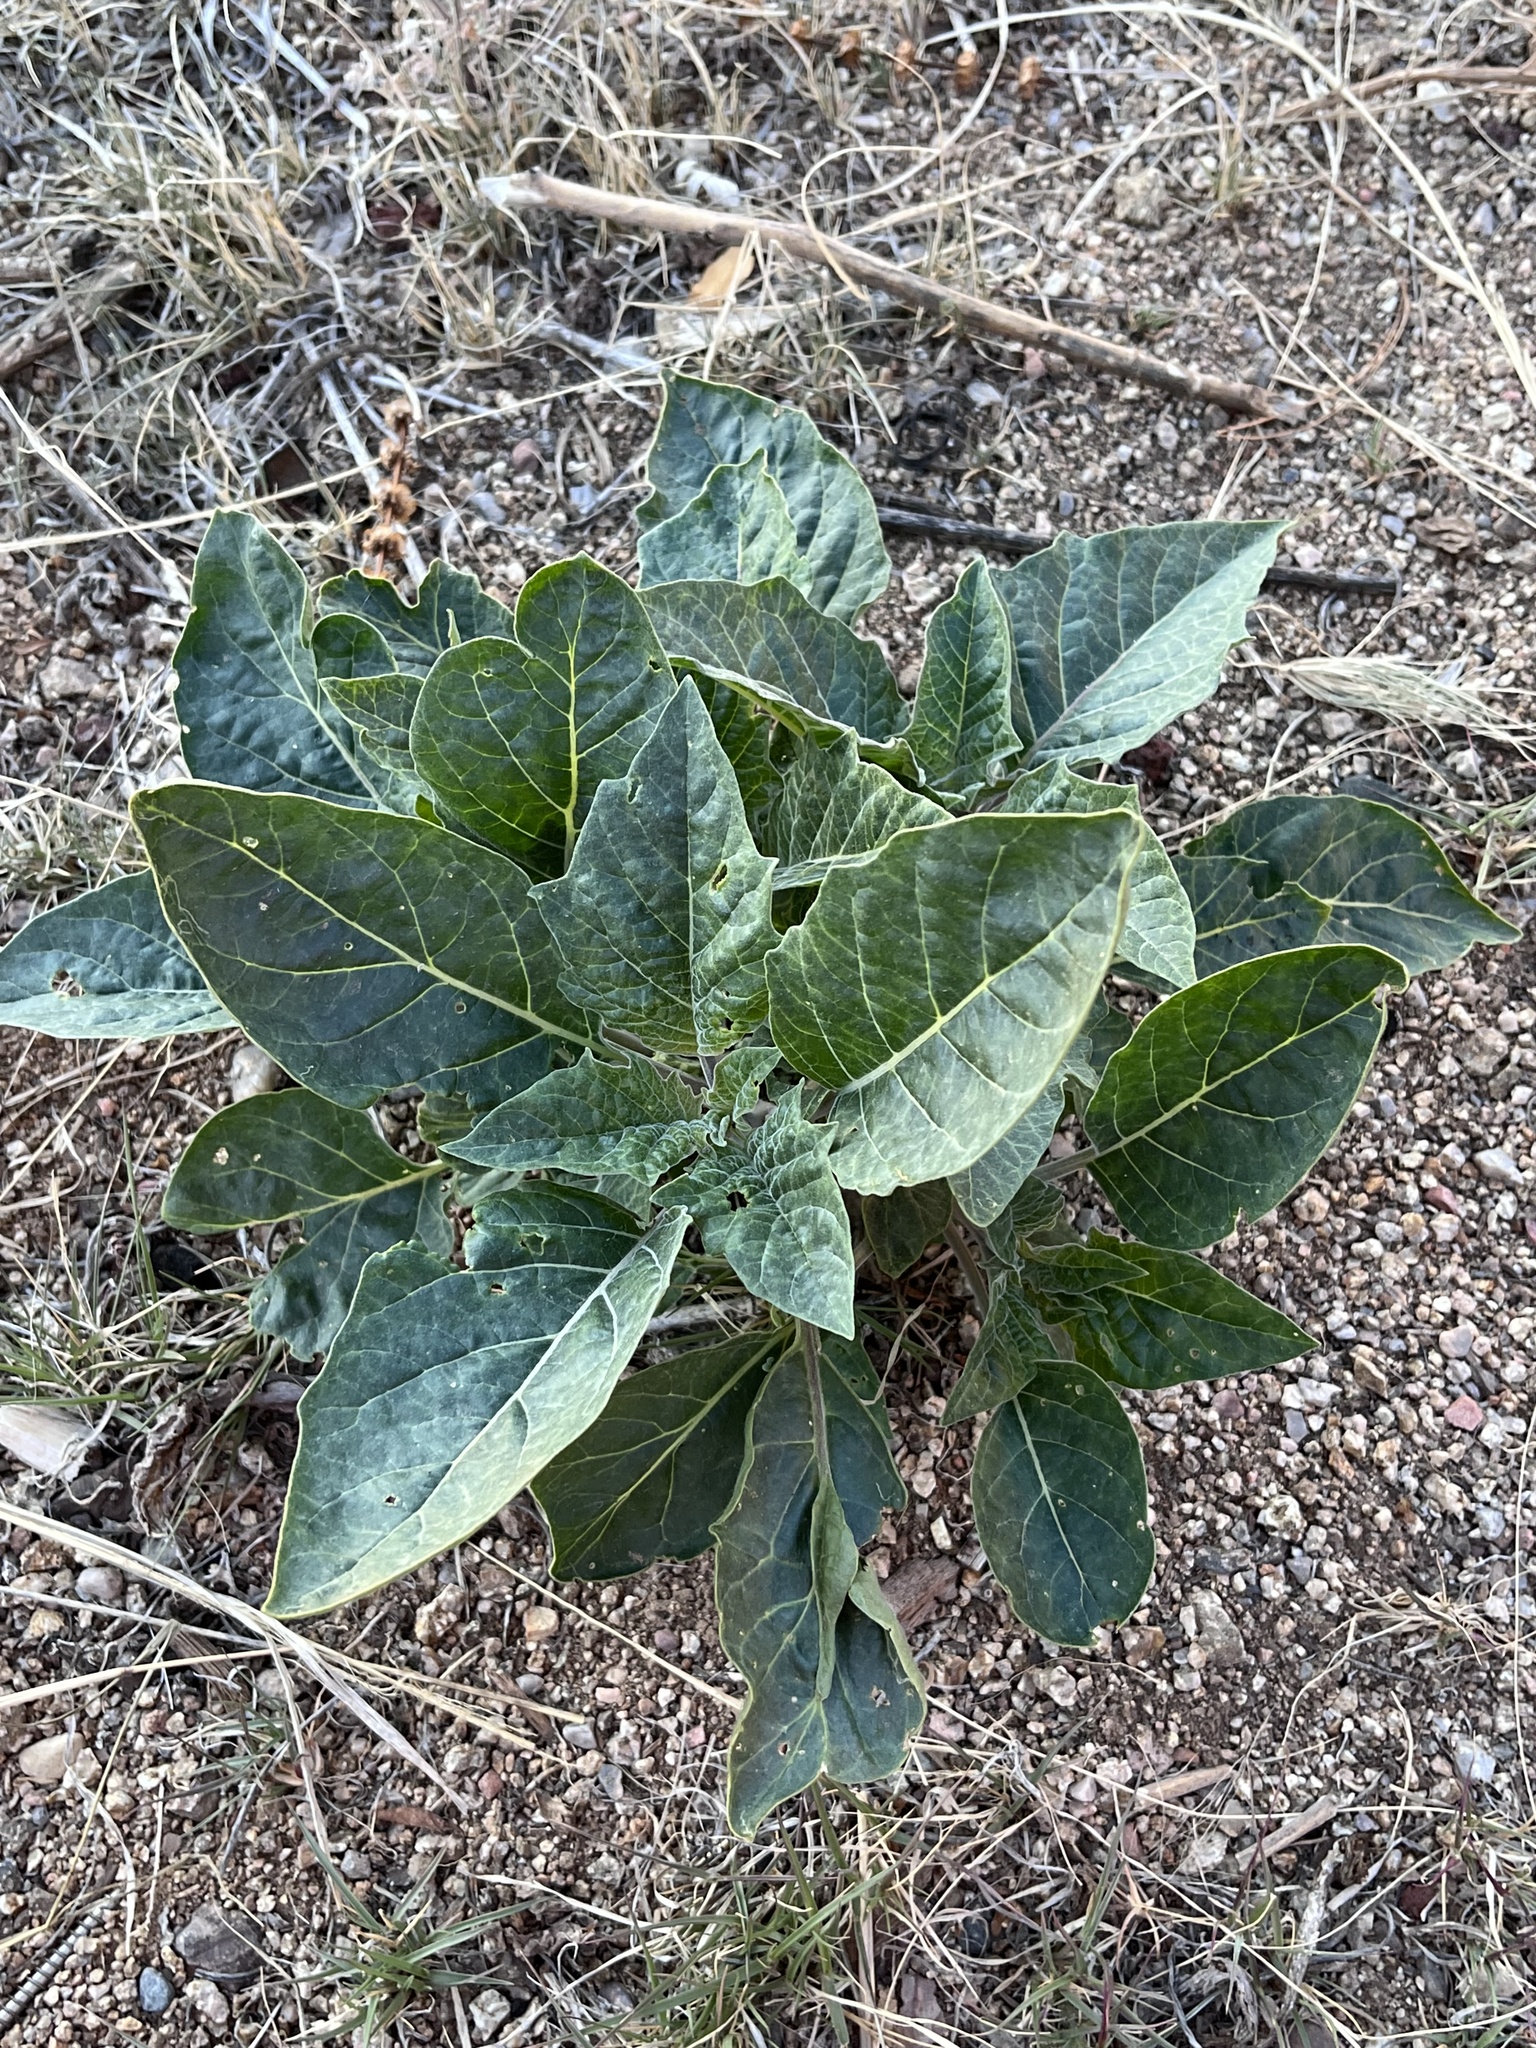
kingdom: Plantae
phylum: Tracheophyta
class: Magnoliopsida
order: Solanales
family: Solanaceae
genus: Datura
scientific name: Datura wrightii
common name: Sacred thorn-apple
